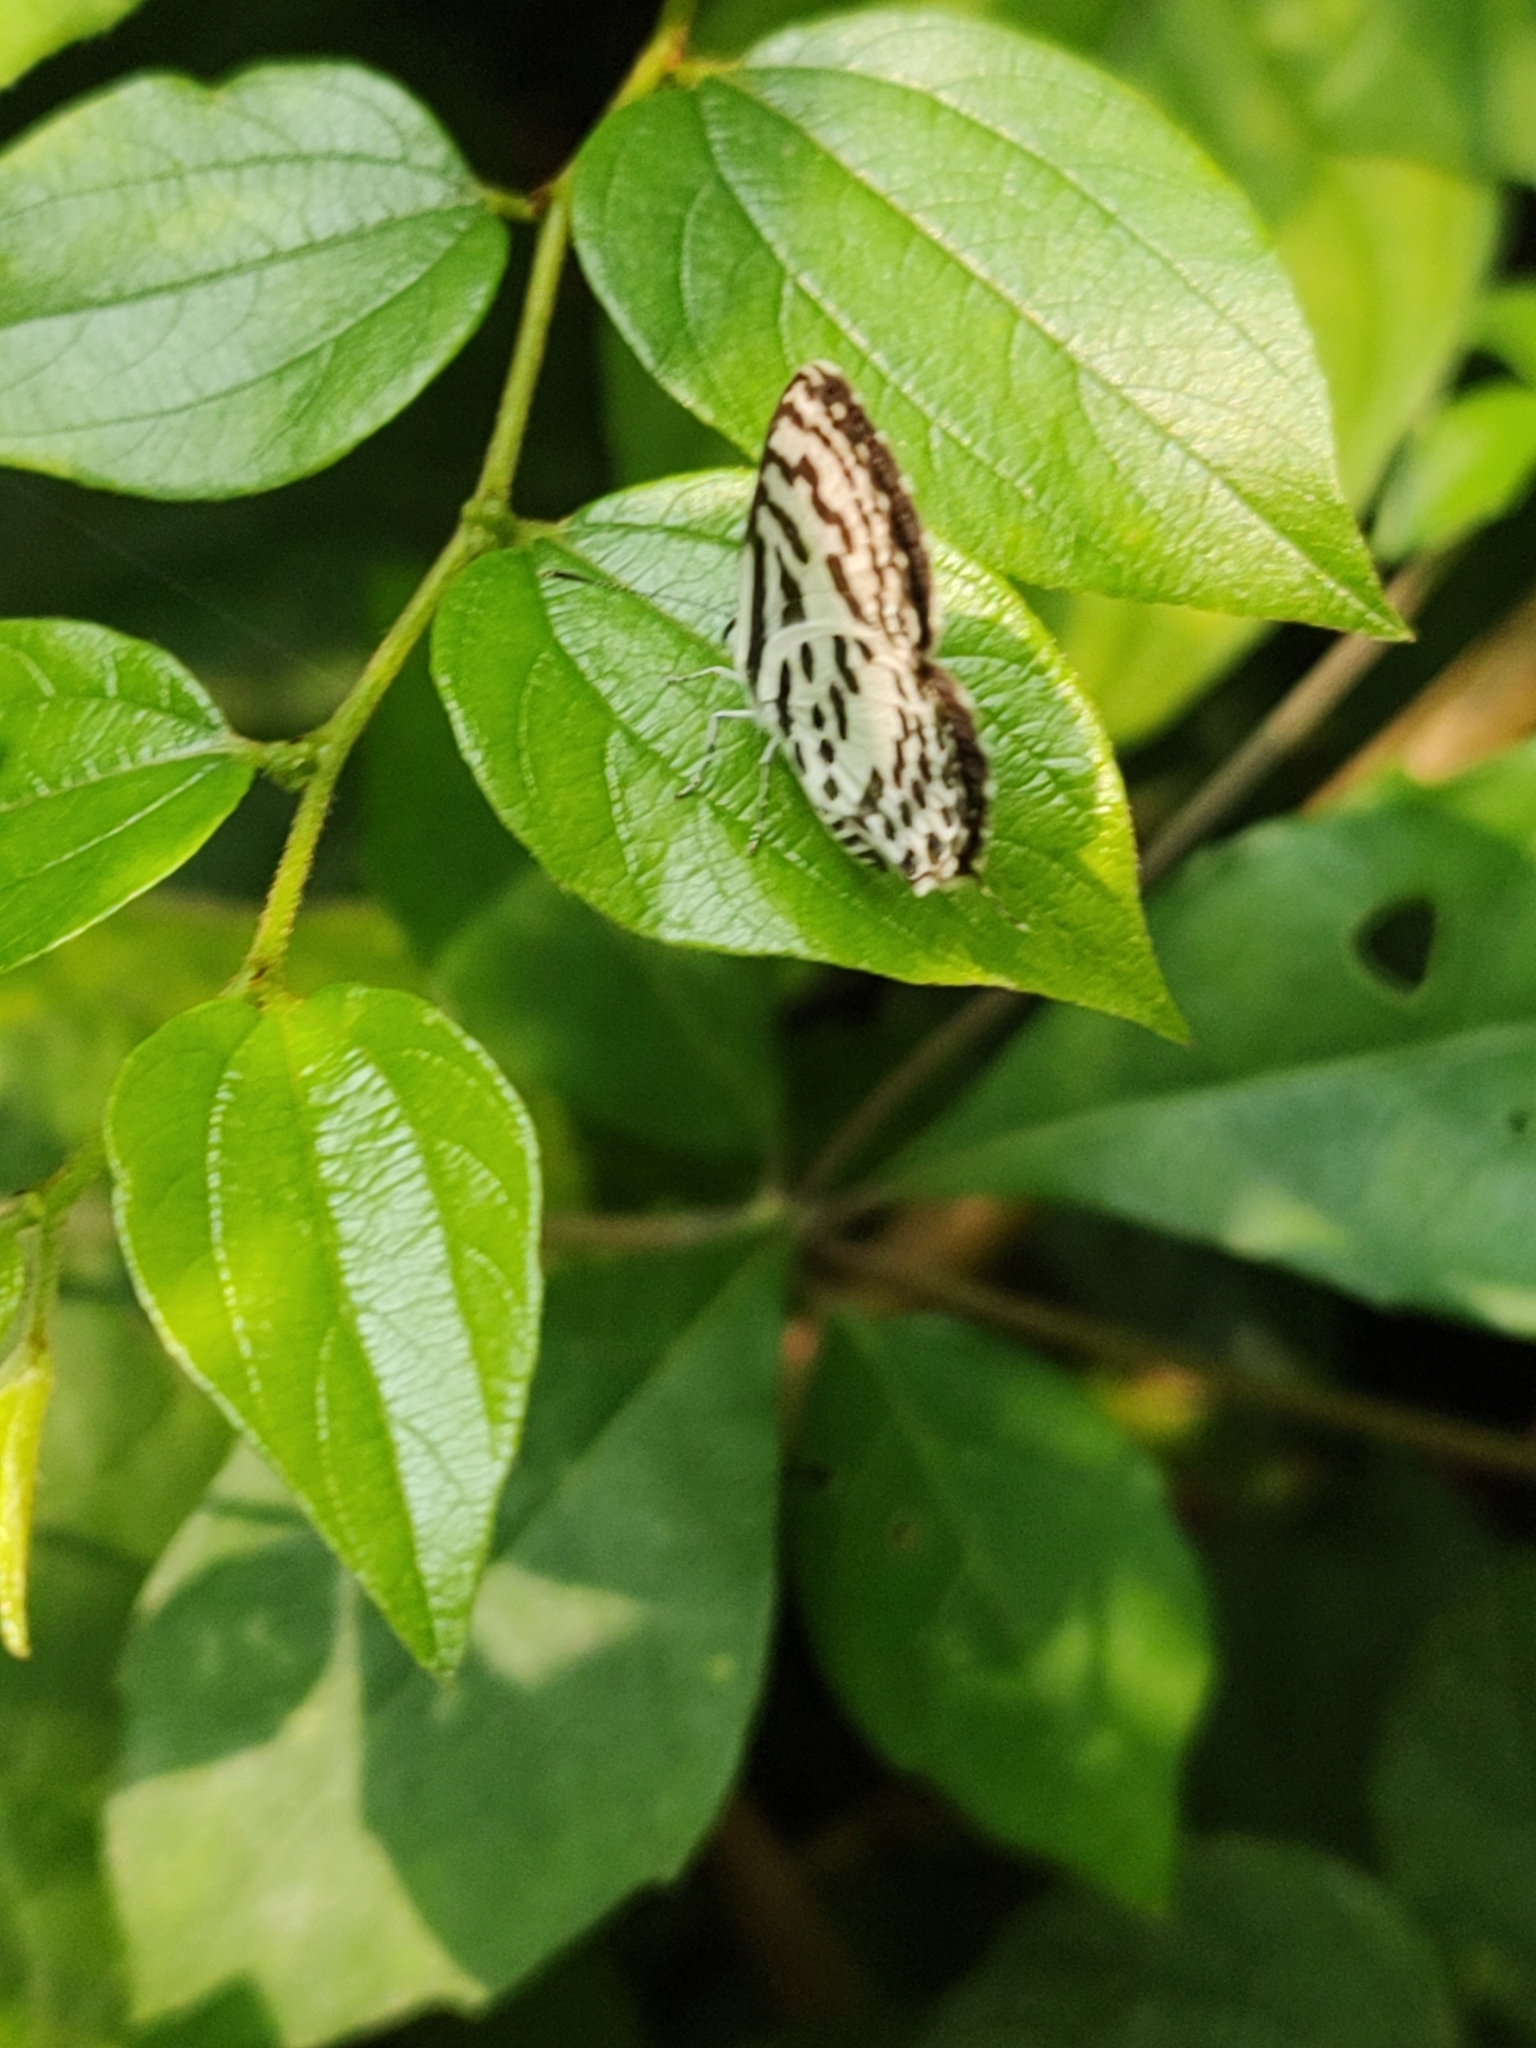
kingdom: Animalia
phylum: Arthropoda
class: Insecta
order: Lepidoptera
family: Lycaenidae
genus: Castalius
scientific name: Castalius rosimon
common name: Common pierrot
